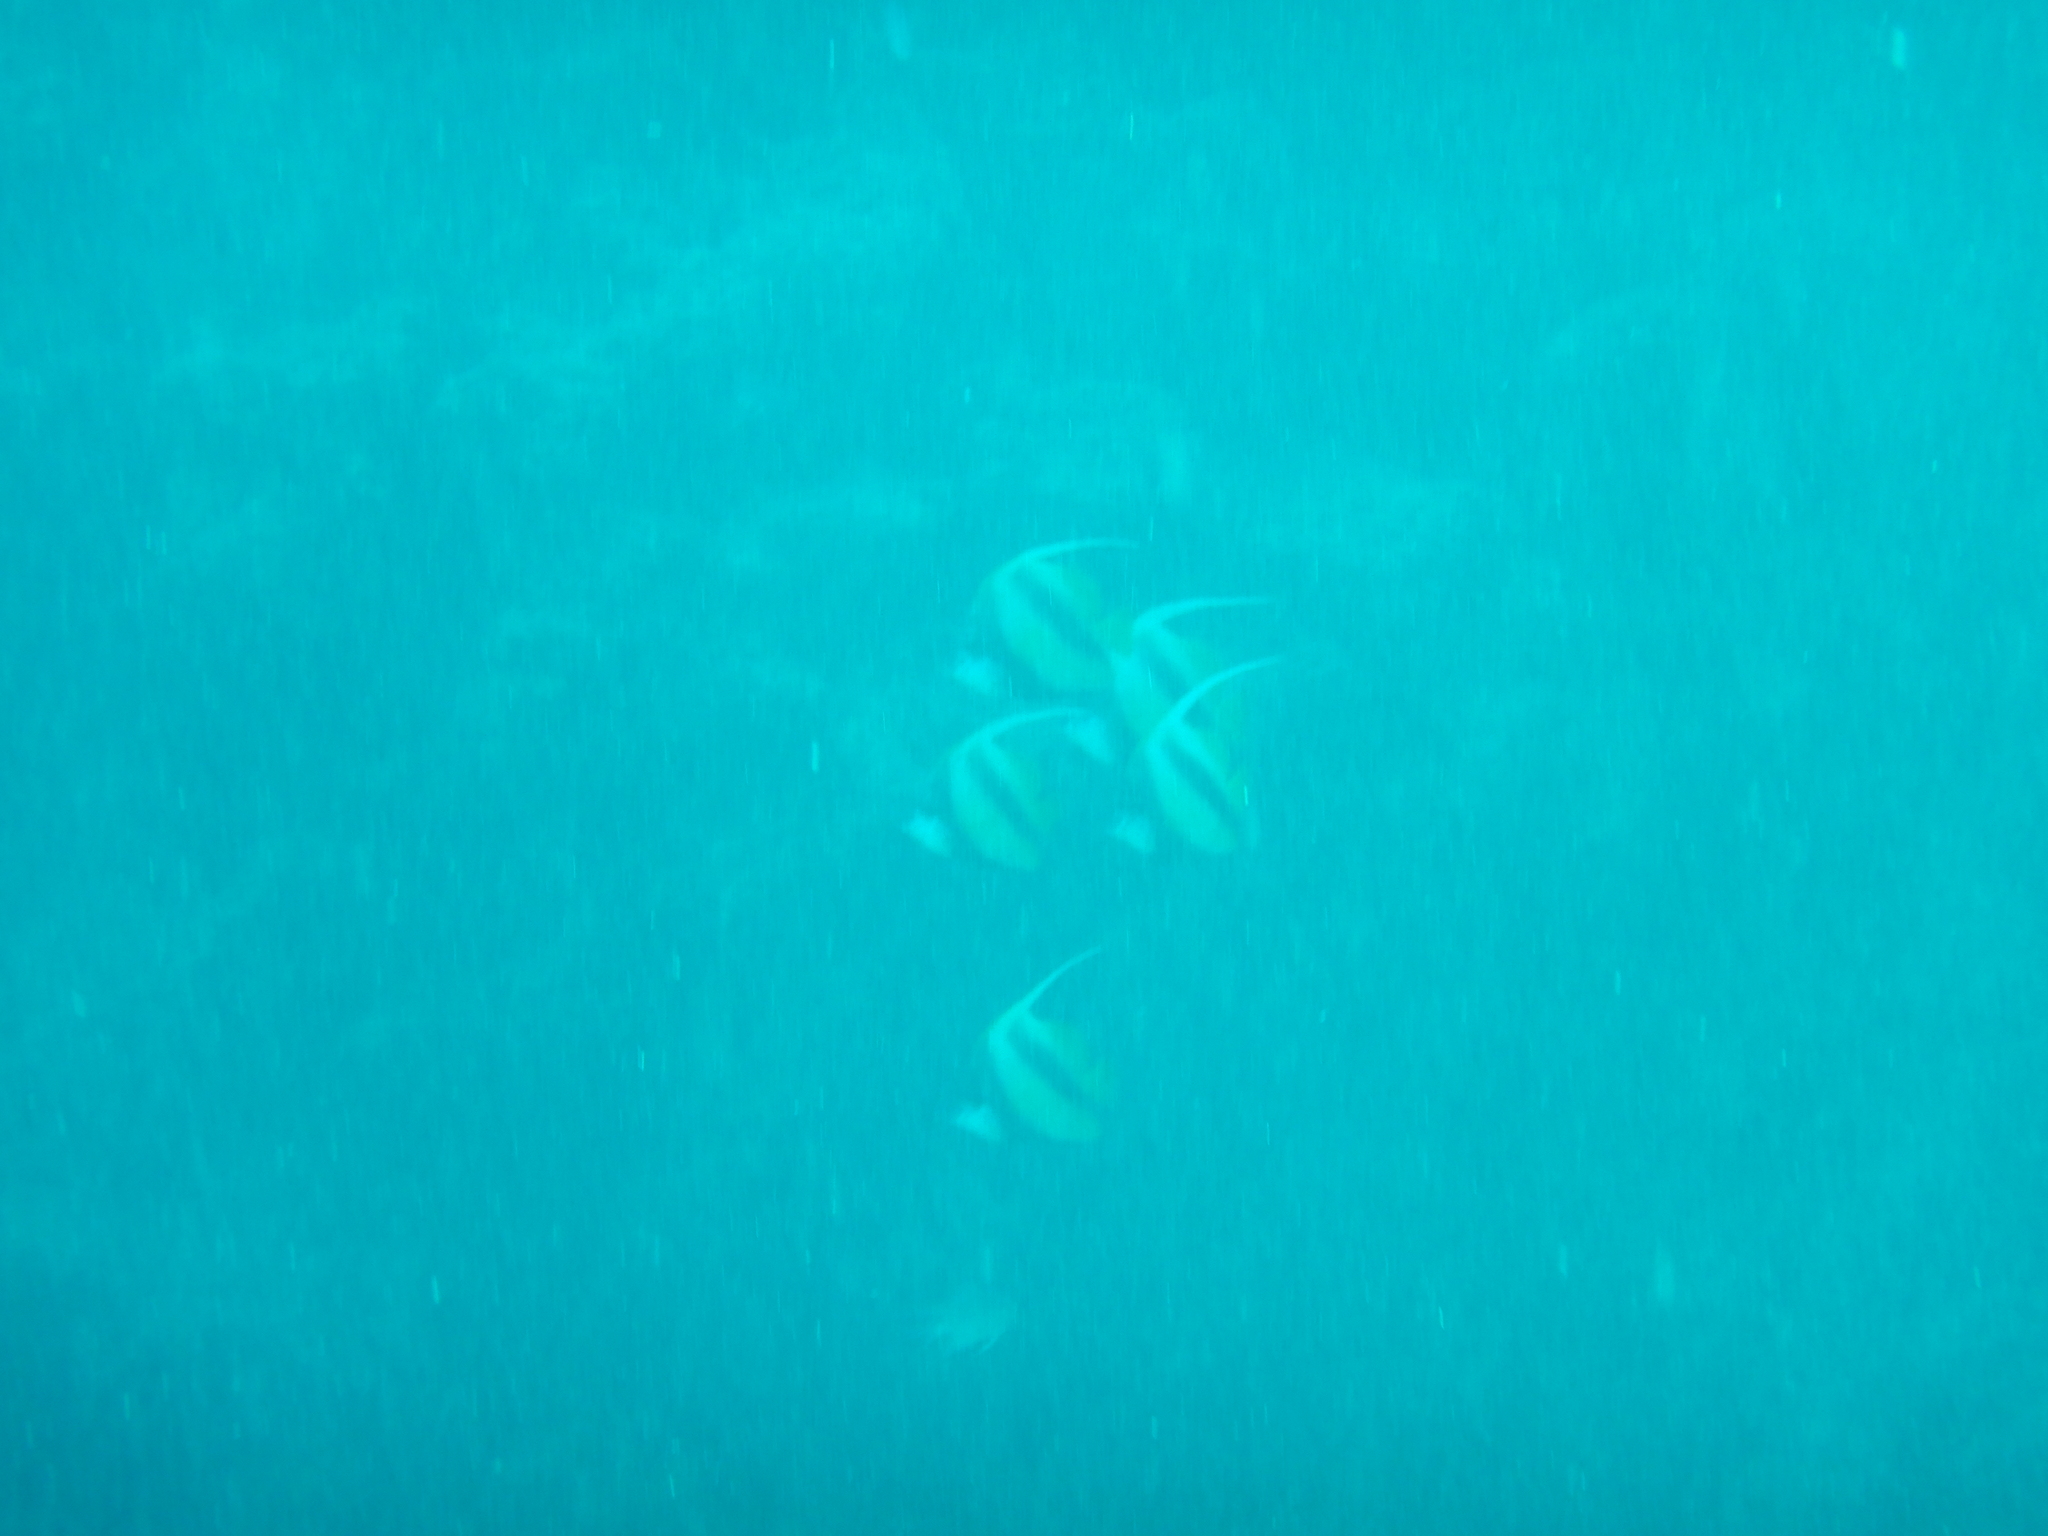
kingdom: Animalia
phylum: Chordata
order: Perciformes
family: Chaetodontidae
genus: Heniochus
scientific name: Heniochus intermedius
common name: Red sea bannerfish
